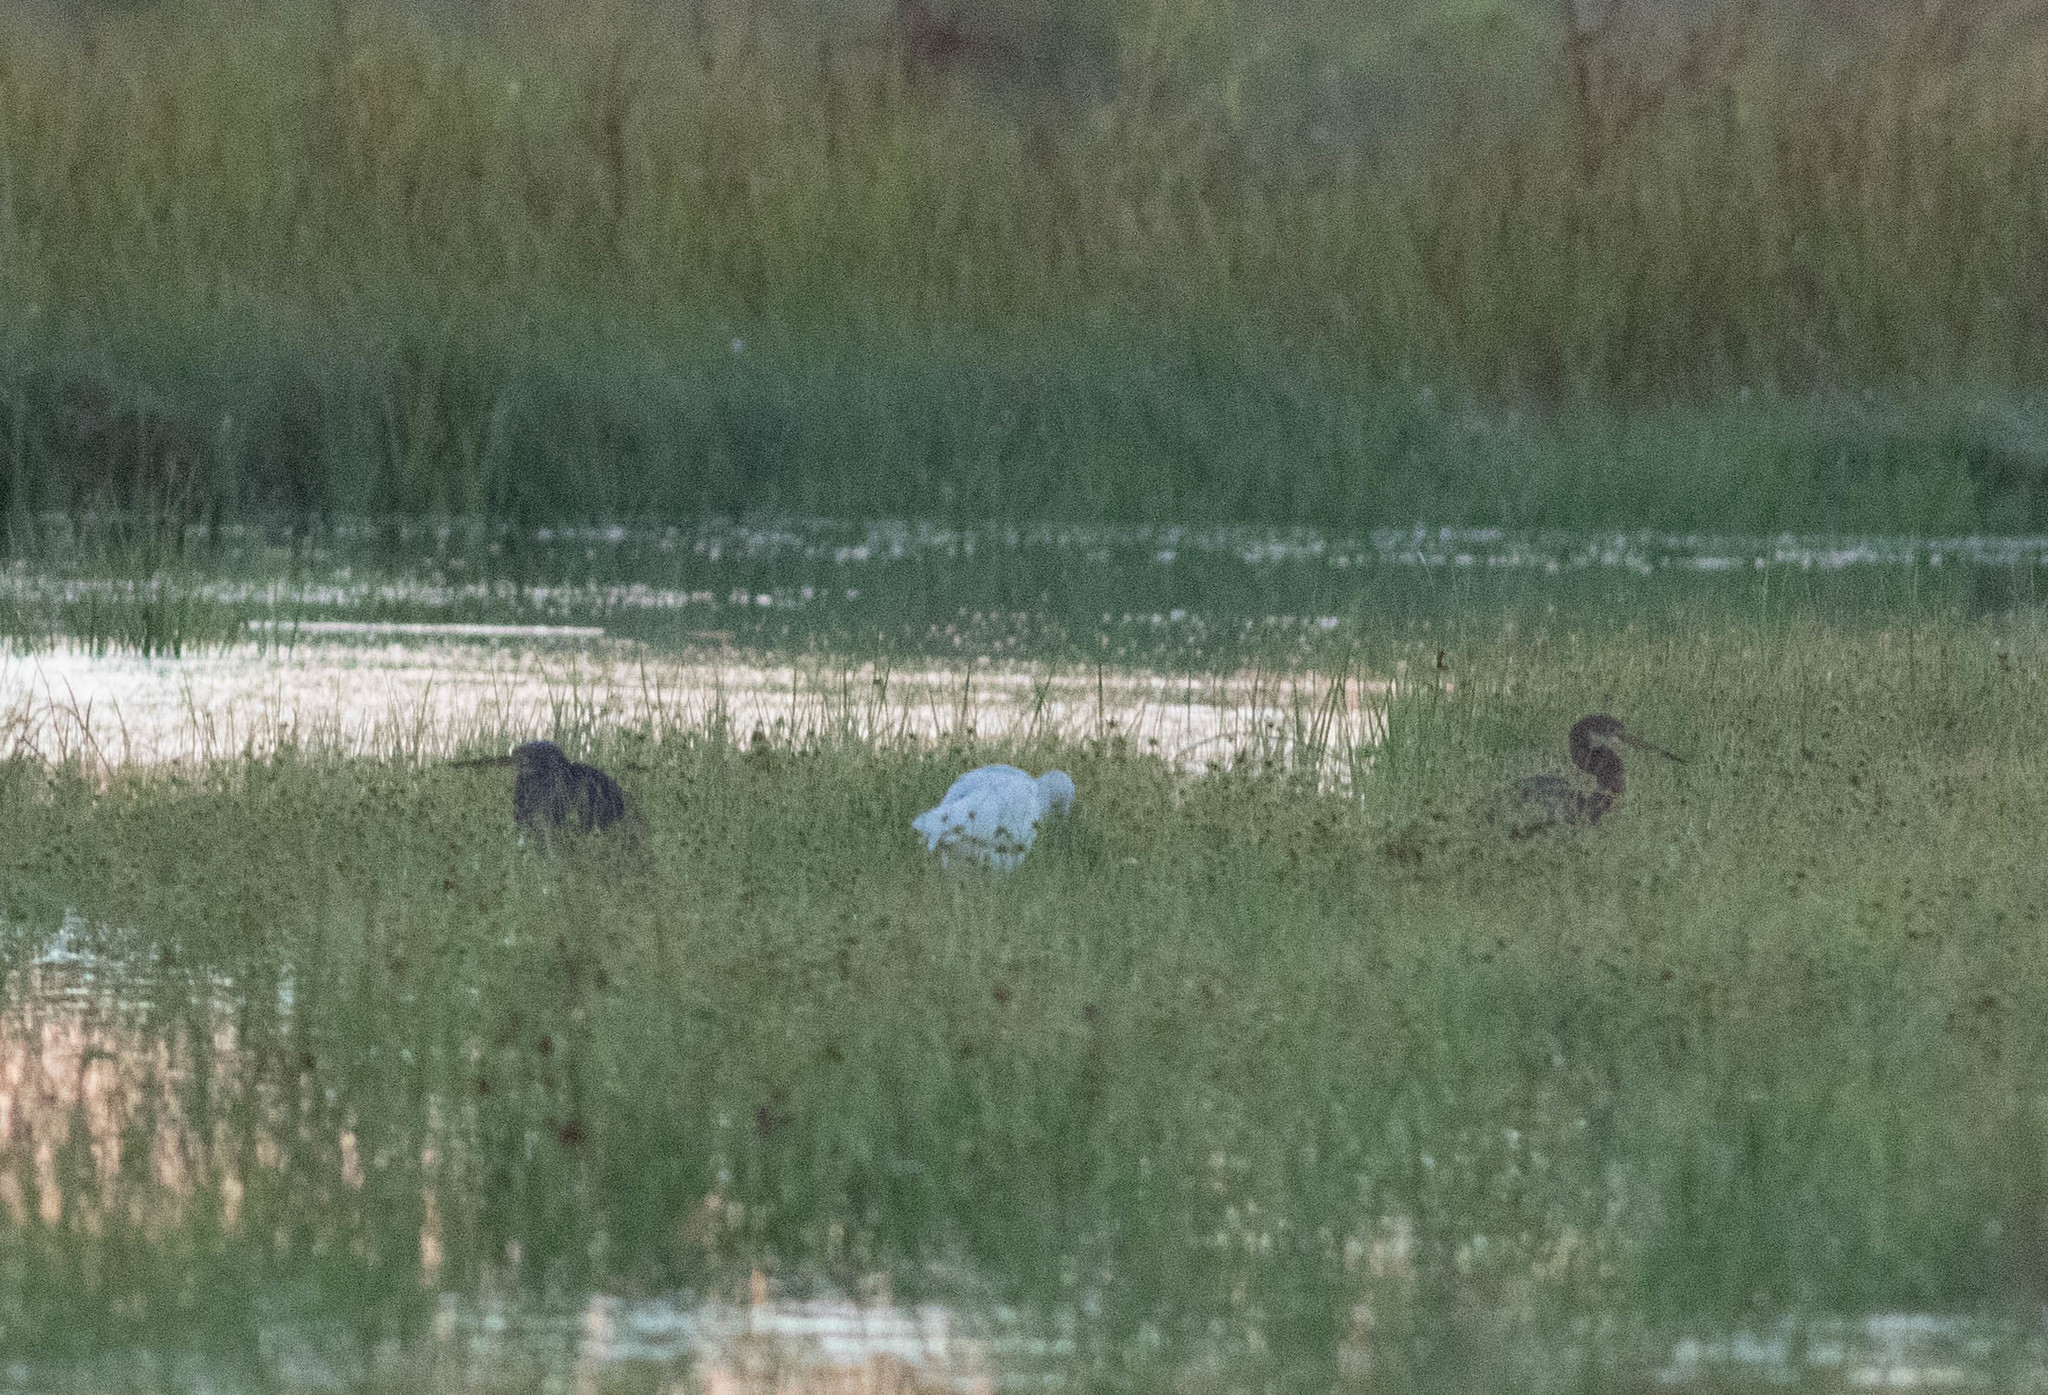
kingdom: Animalia
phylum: Chordata
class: Aves
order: Pelecaniformes
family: Ardeidae
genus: Egretta
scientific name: Egretta tricolor
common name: Tricolored heron
